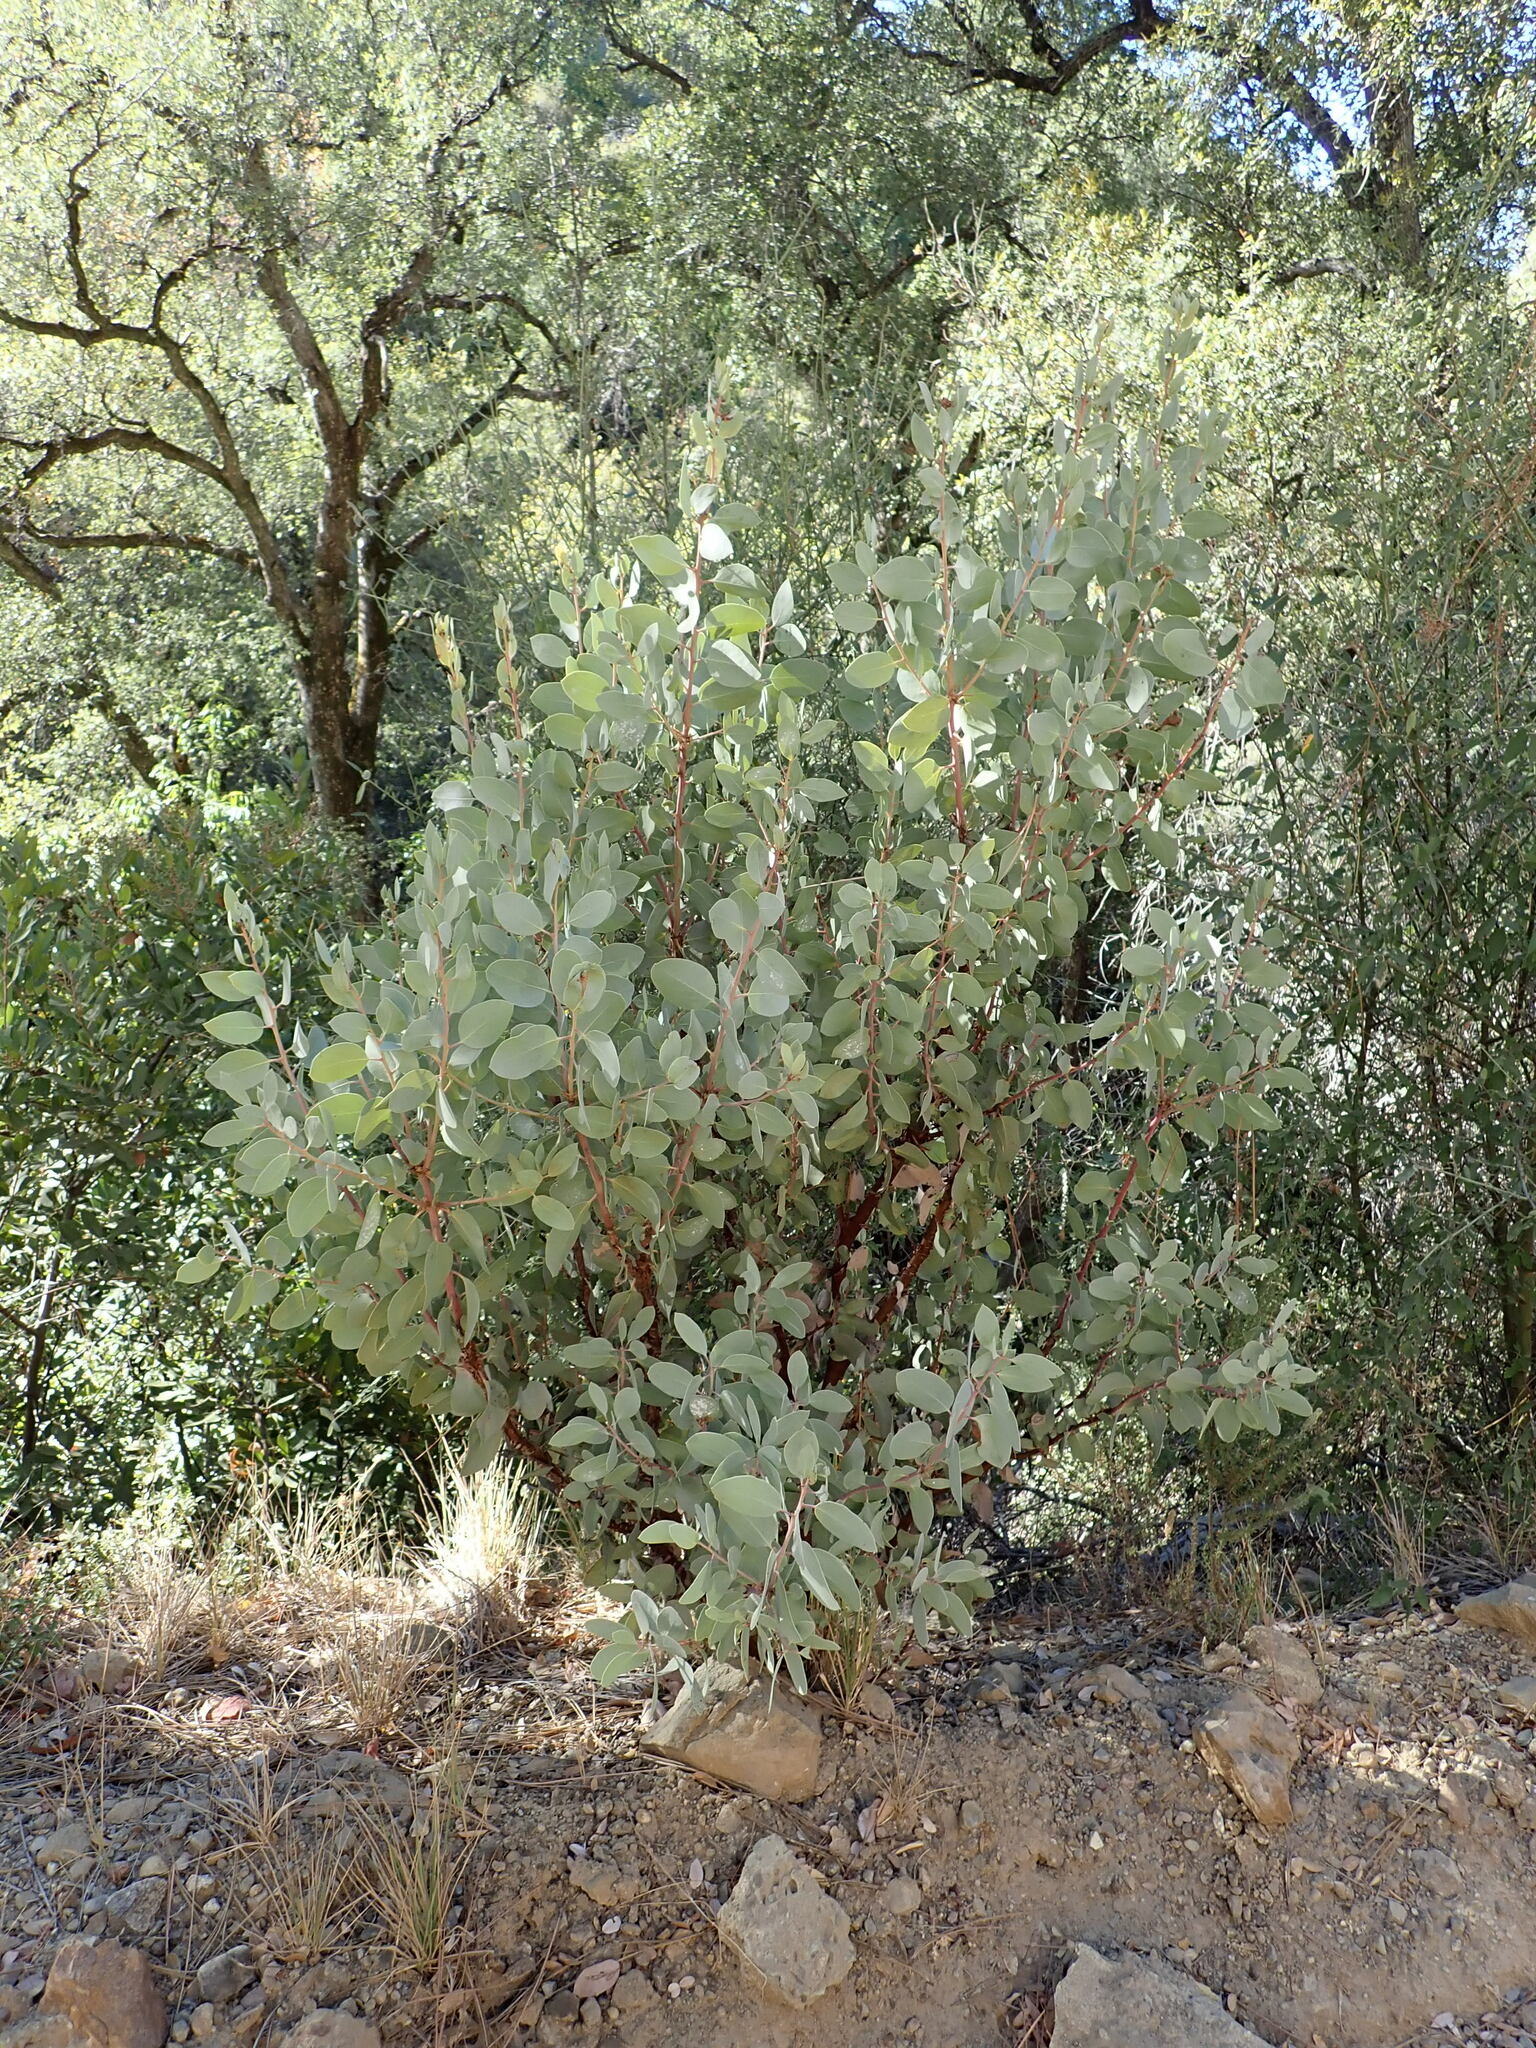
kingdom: Plantae
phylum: Tracheophyta
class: Magnoliopsida
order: Ericales
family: Ericaceae
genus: Arctostaphylos
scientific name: Arctostaphylos glauca
